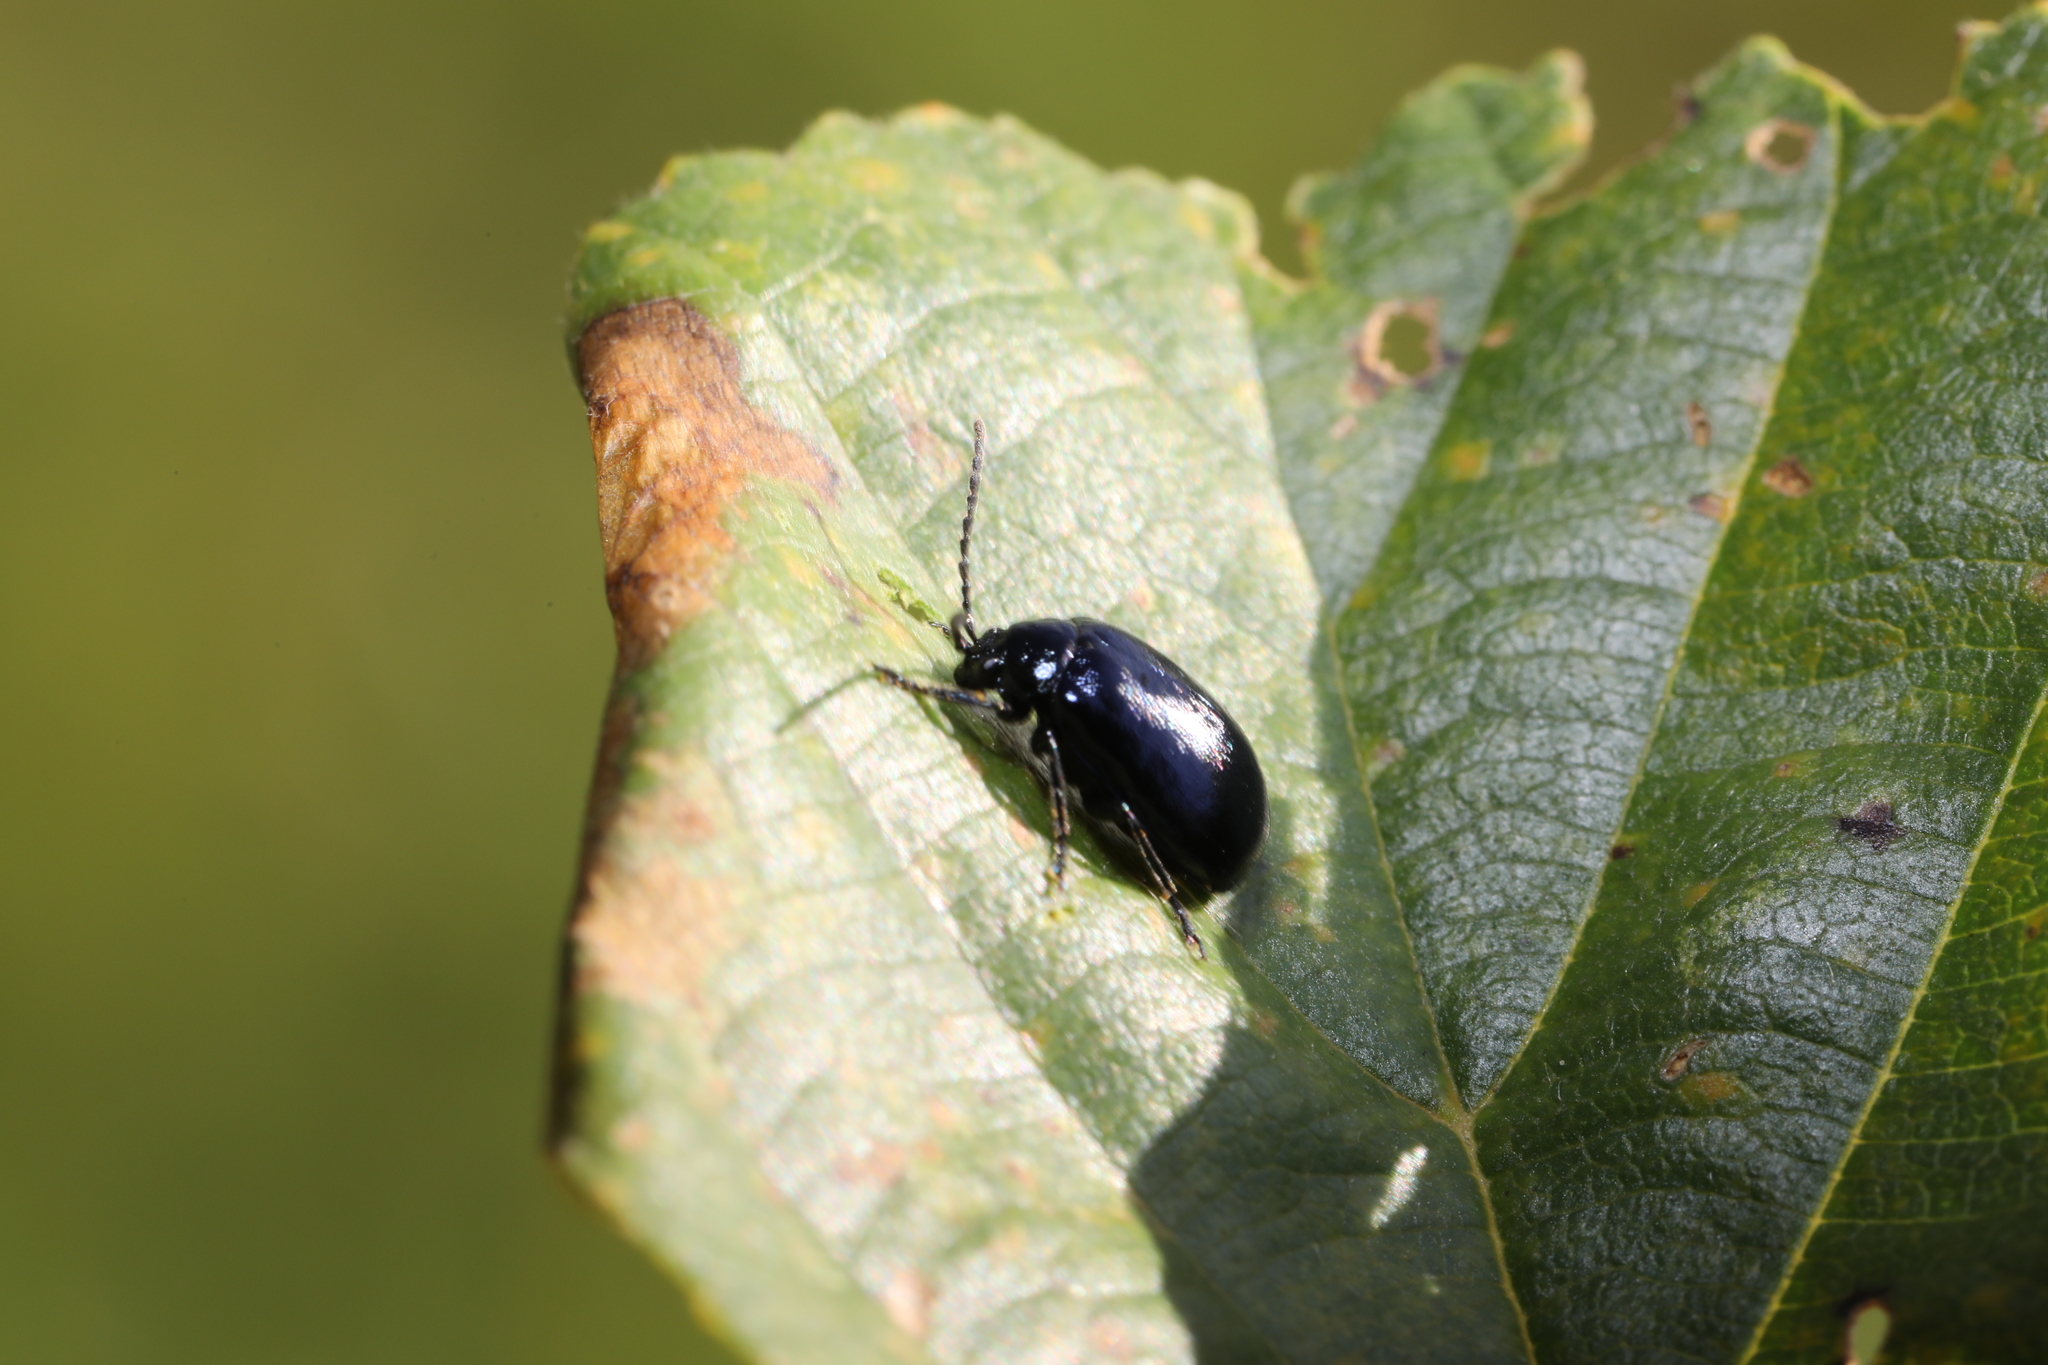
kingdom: Animalia
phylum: Arthropoda
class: Insecta
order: Coleoptera
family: Chrysomelidae
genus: Agelastica
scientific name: Agelastica alni
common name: Alder leaf beetle
